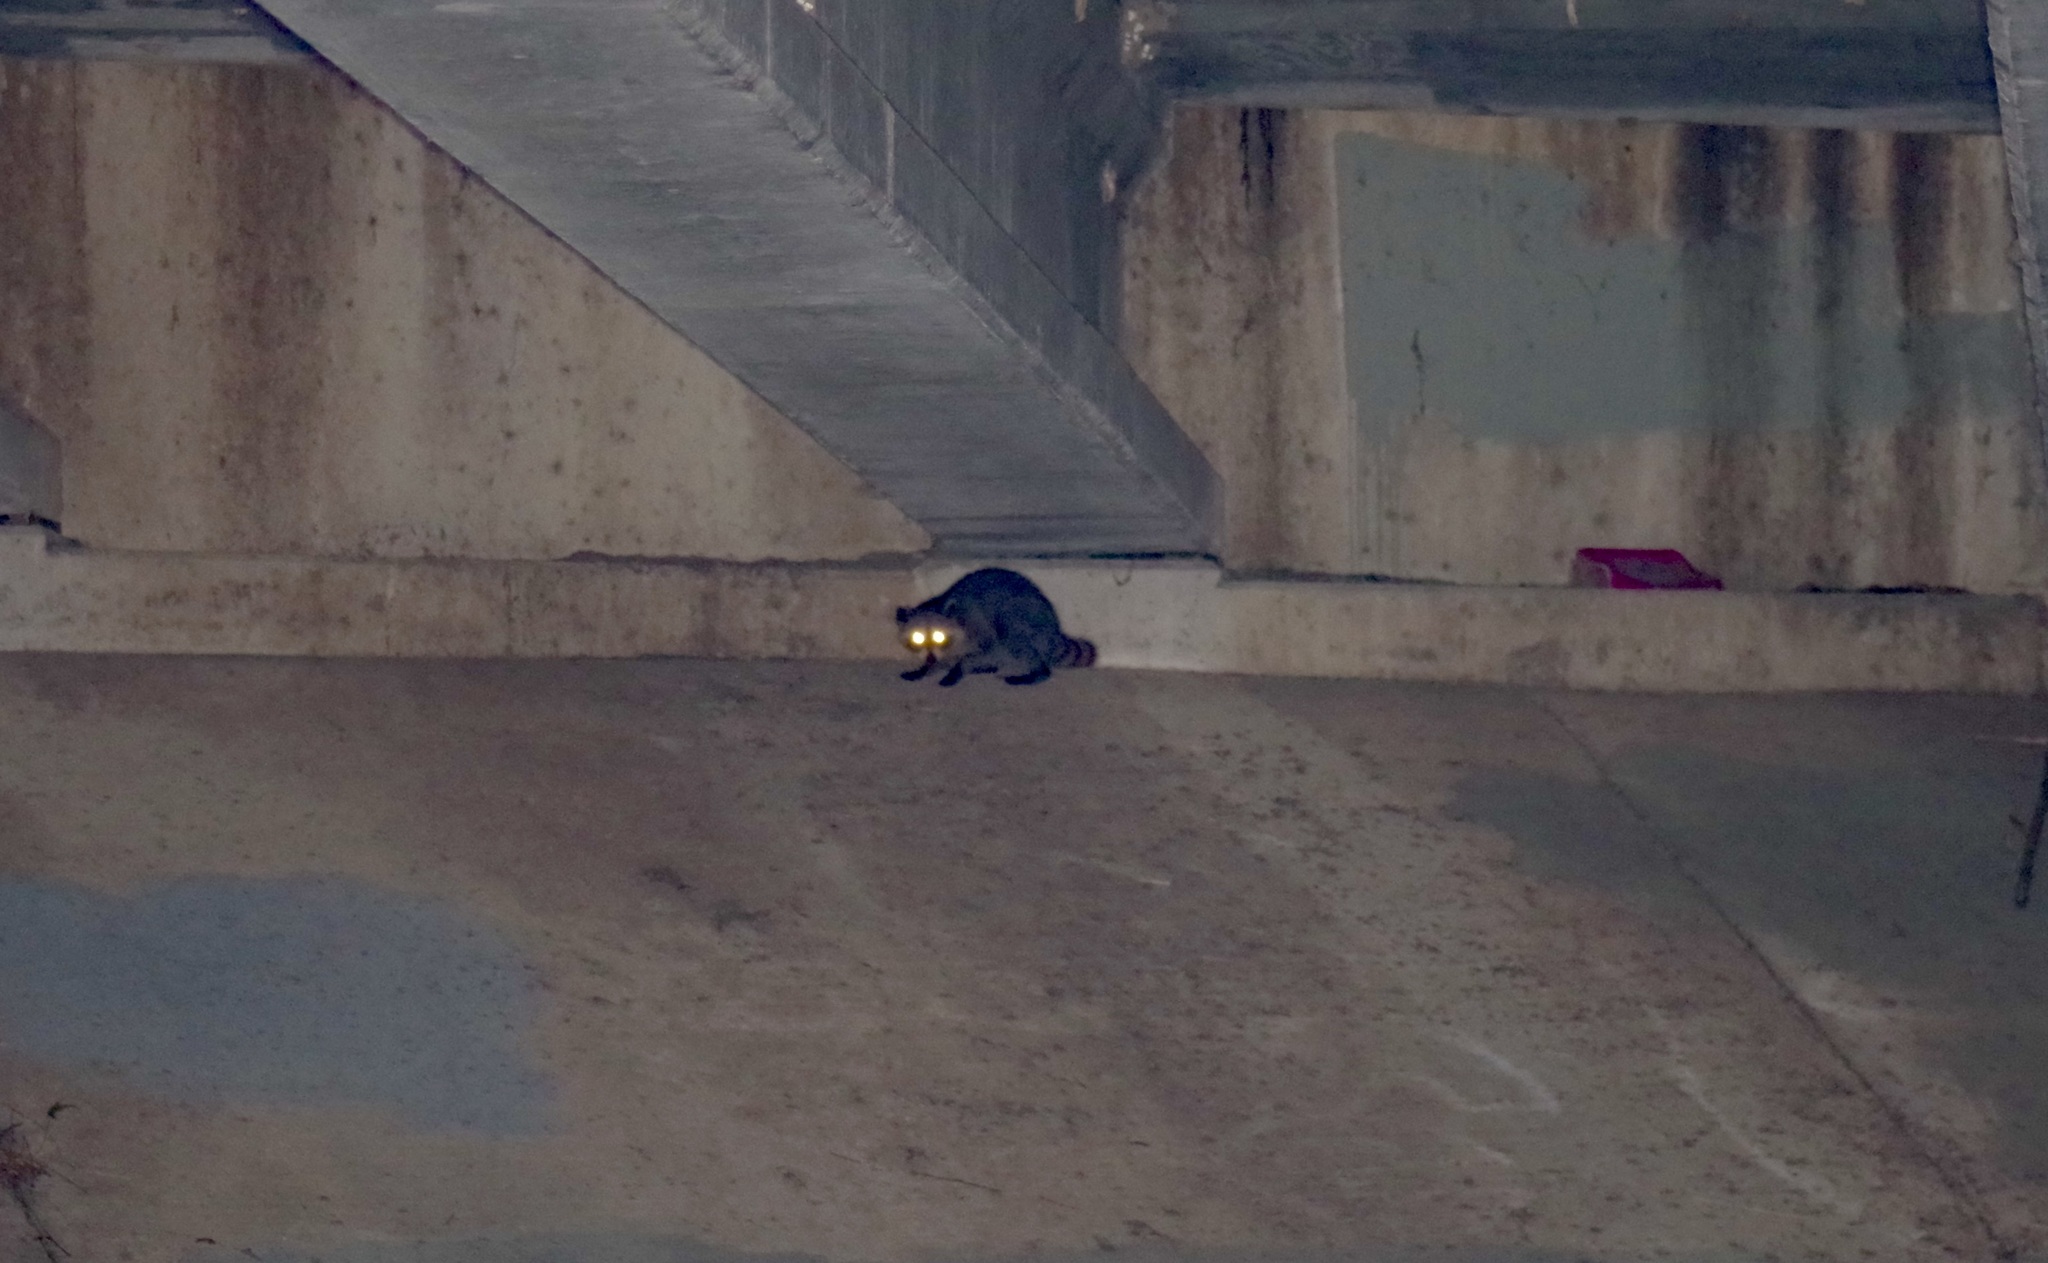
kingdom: Animalia
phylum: Chordata
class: Mammalia
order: Carnivora
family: Procyonidae
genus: Procyon
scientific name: Procyon lotor
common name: Raccoon
